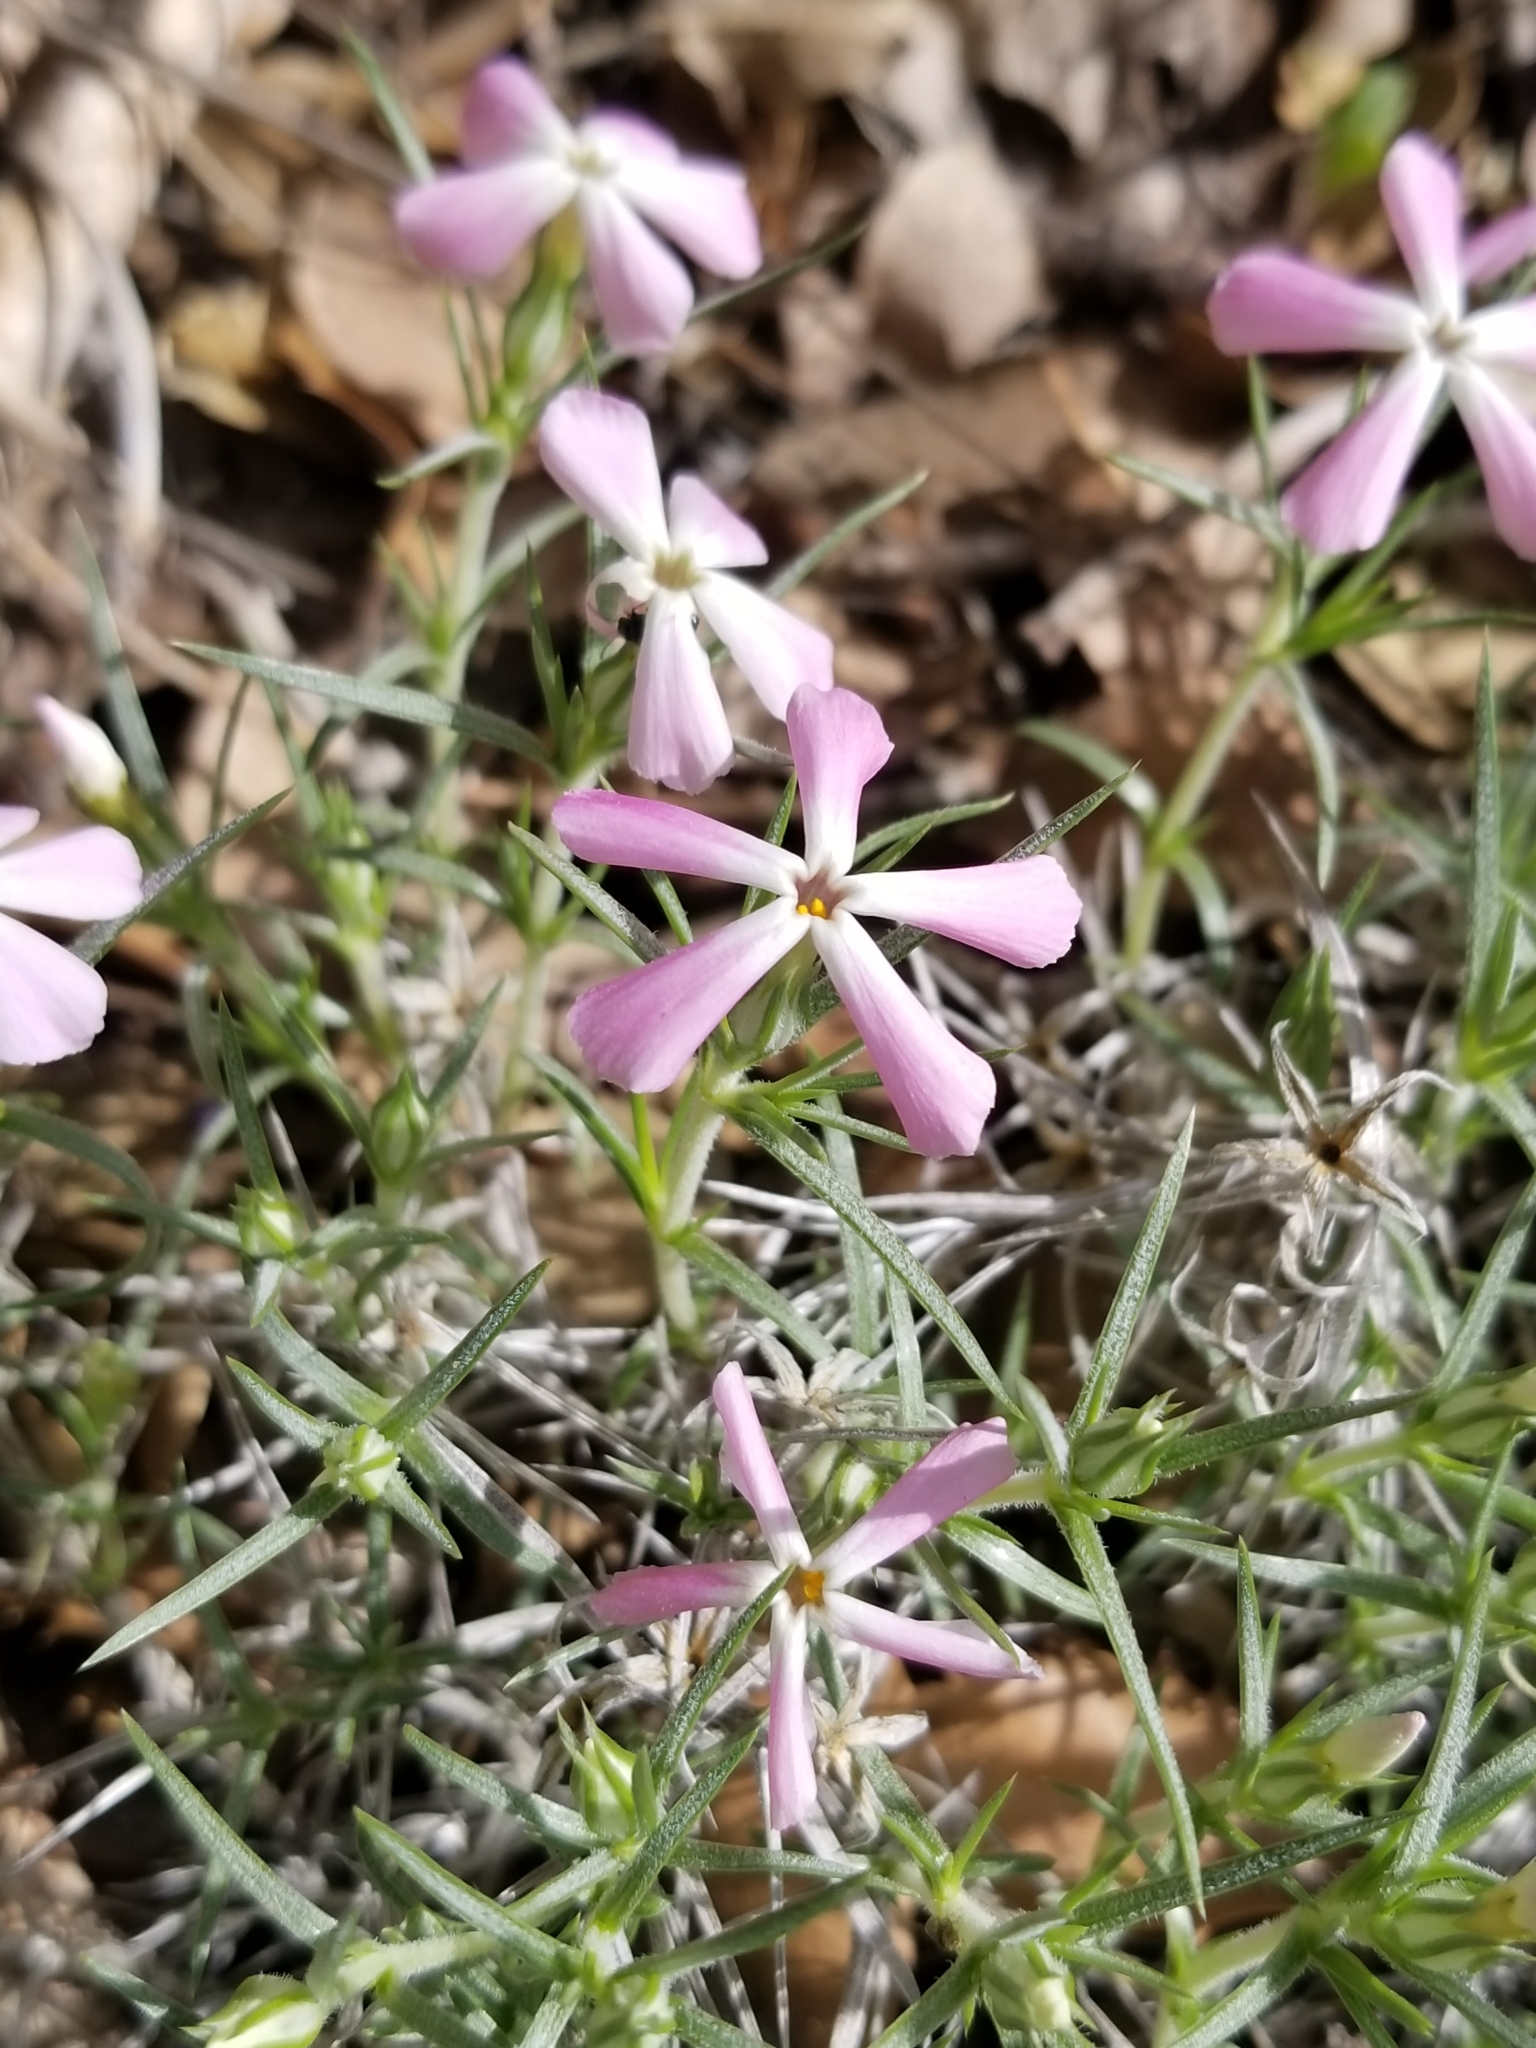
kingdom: Plantae
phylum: Tracheophyta
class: Magnoliopsida
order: Ericales
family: Polemoniaceae
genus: Phlox
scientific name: Phlox austromontana
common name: Desert phlox
